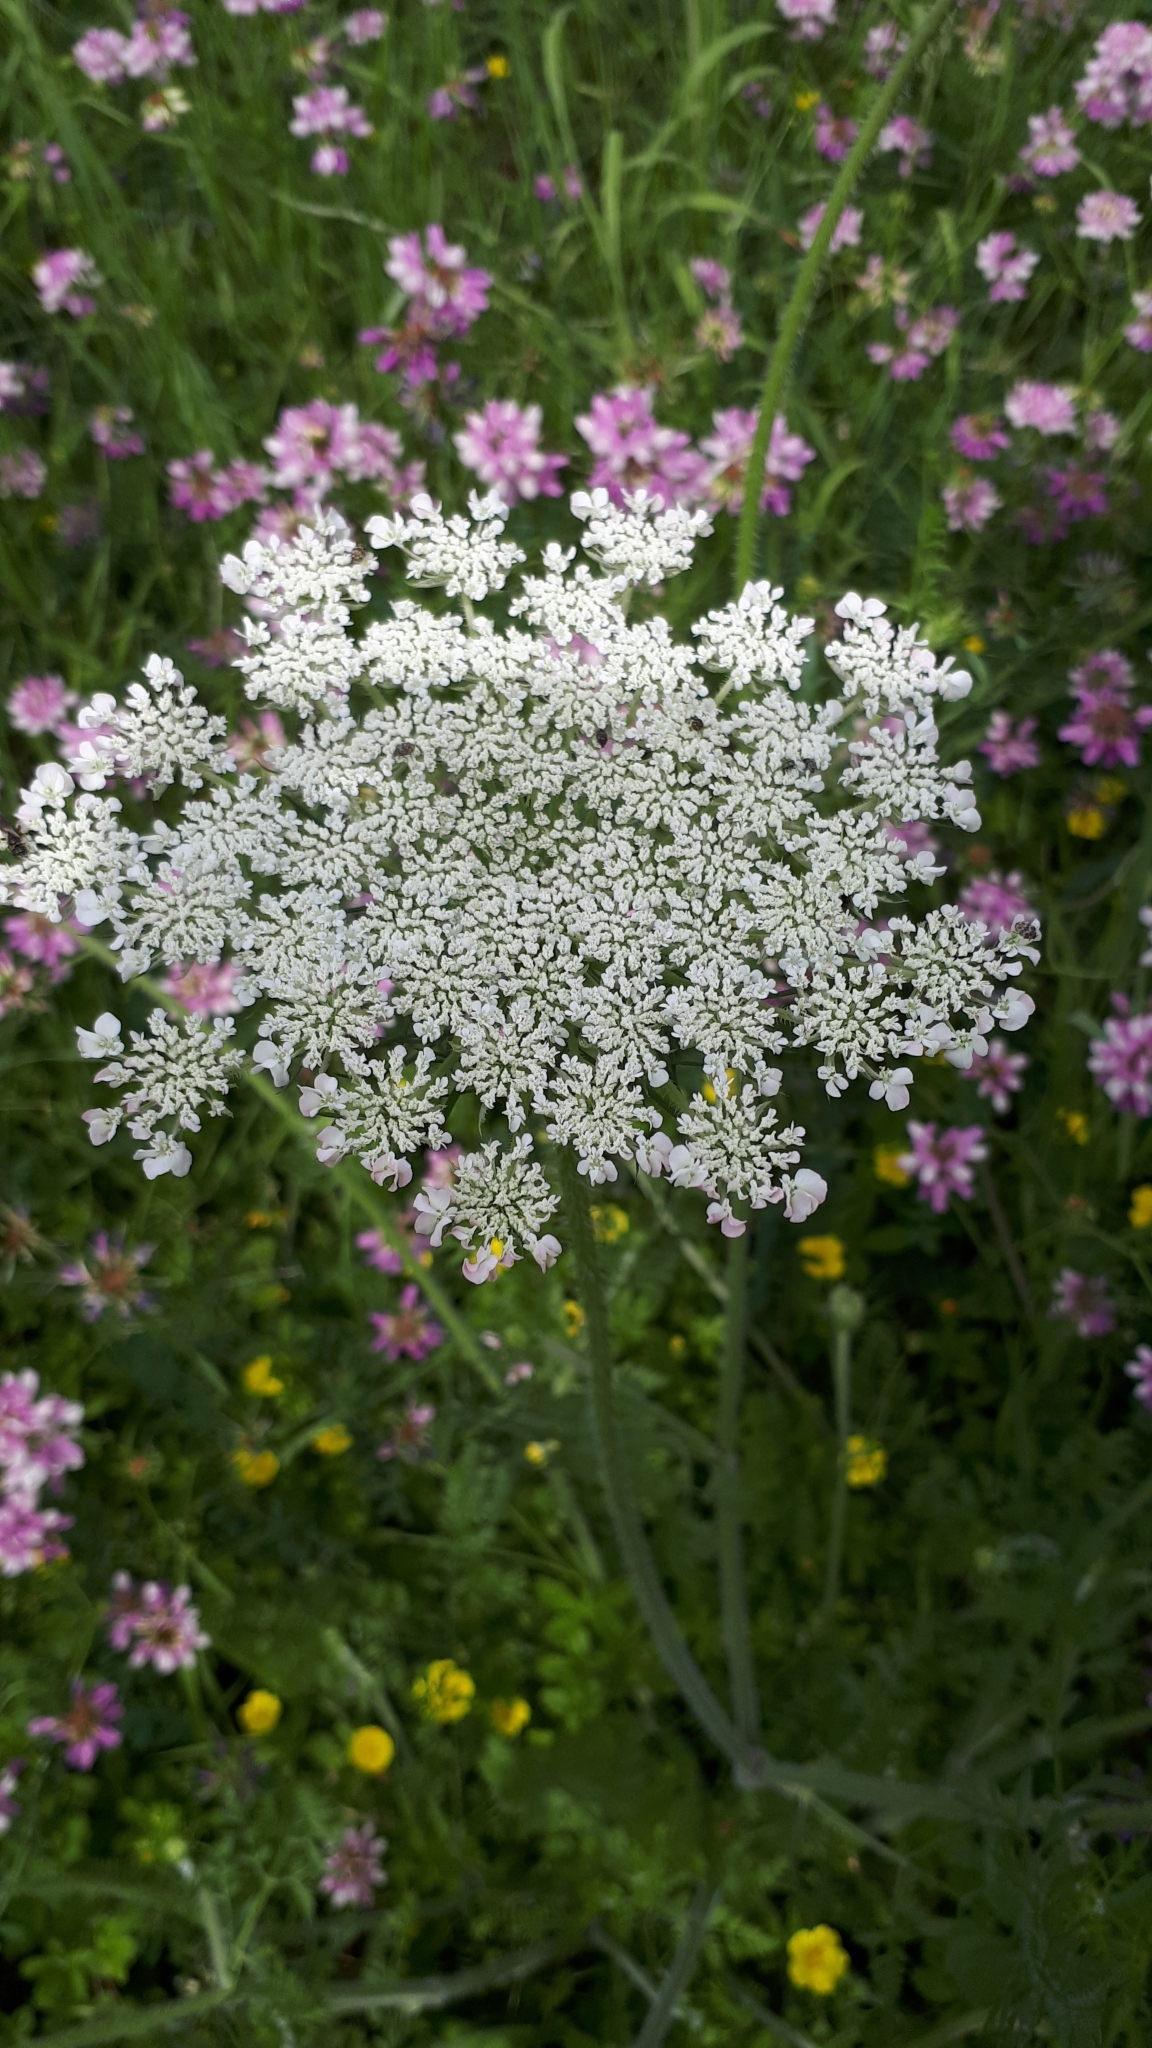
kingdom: Plantae
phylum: Tracheophyta
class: Magnoliopsida
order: Apiales
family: Apiaceae
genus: Daucus
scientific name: Daucus carota
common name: Wild carrot
